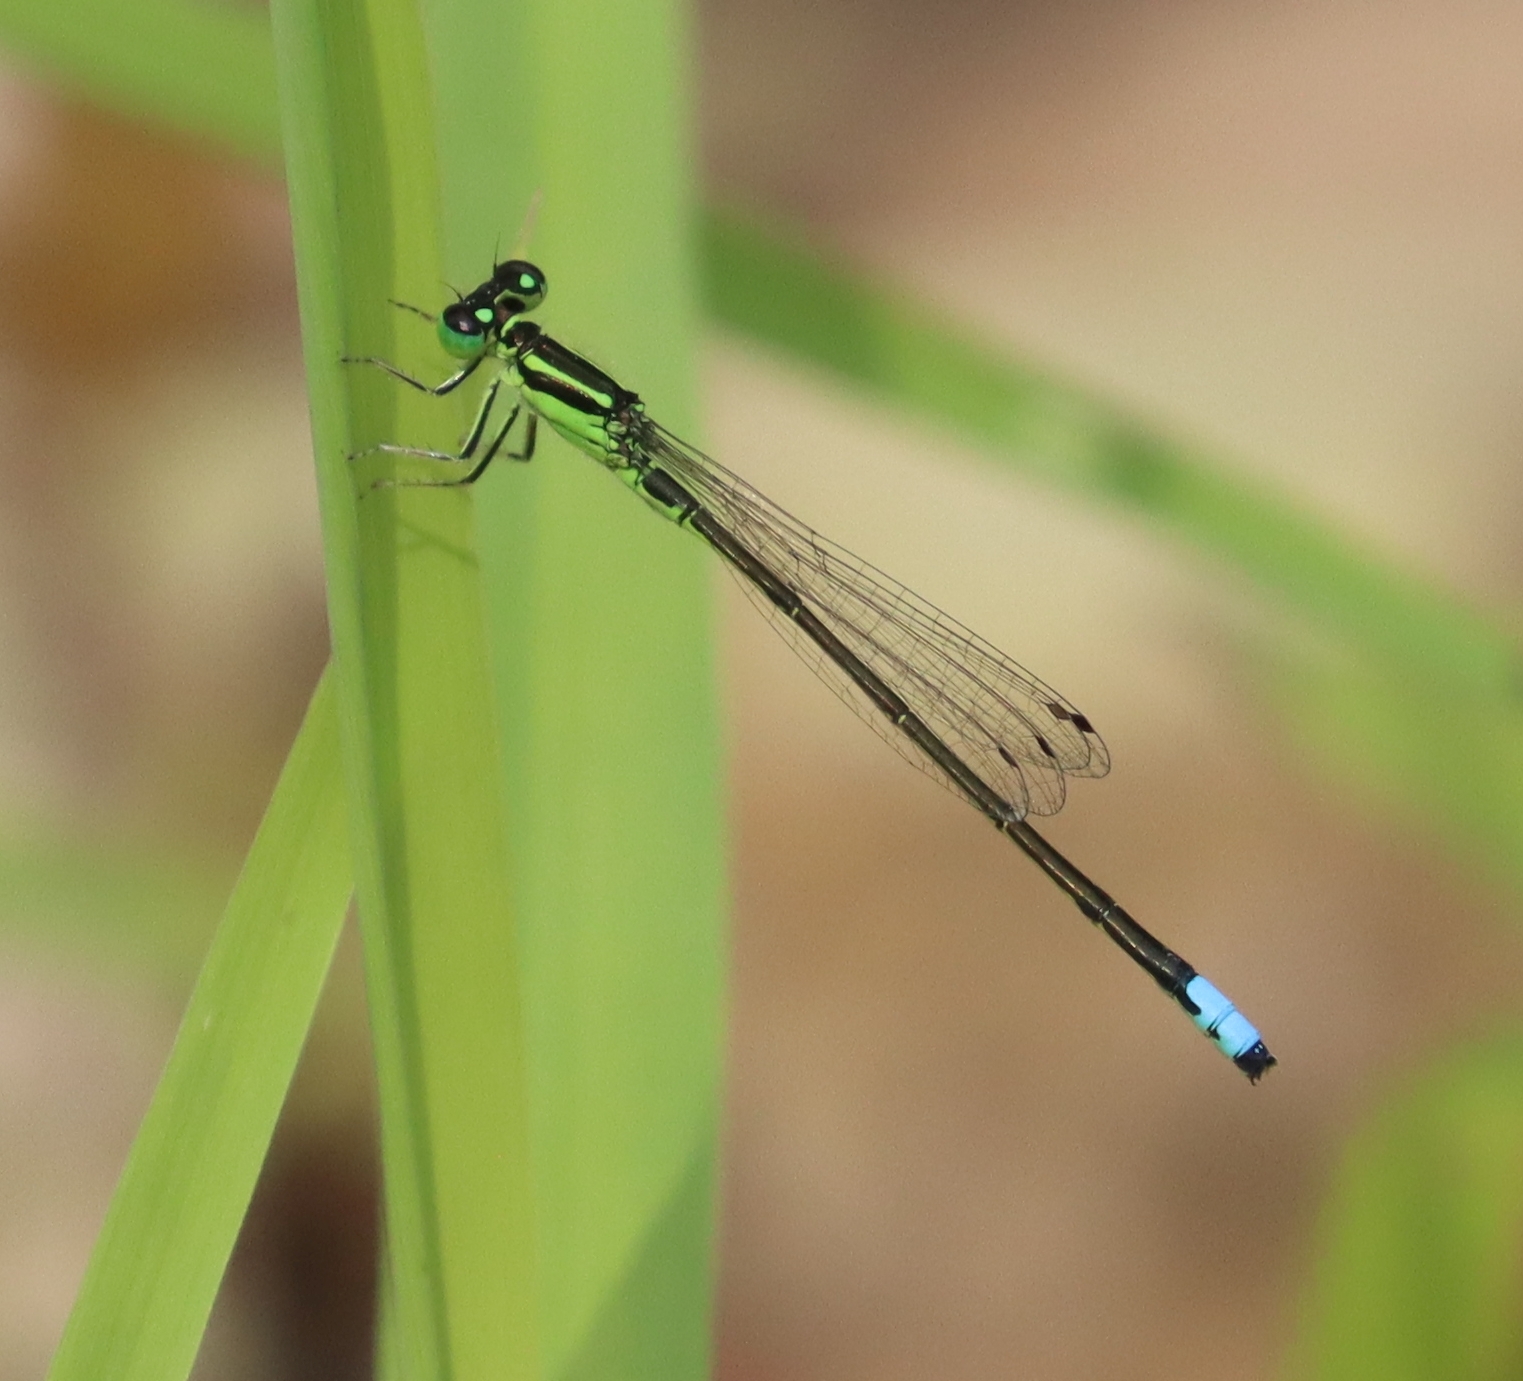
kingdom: Animalia
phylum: Arthropoda
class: Insecta
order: Odonata
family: Coenagrionidae
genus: Ischnura
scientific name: Ischnura verticalis
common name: Eastern forktail
